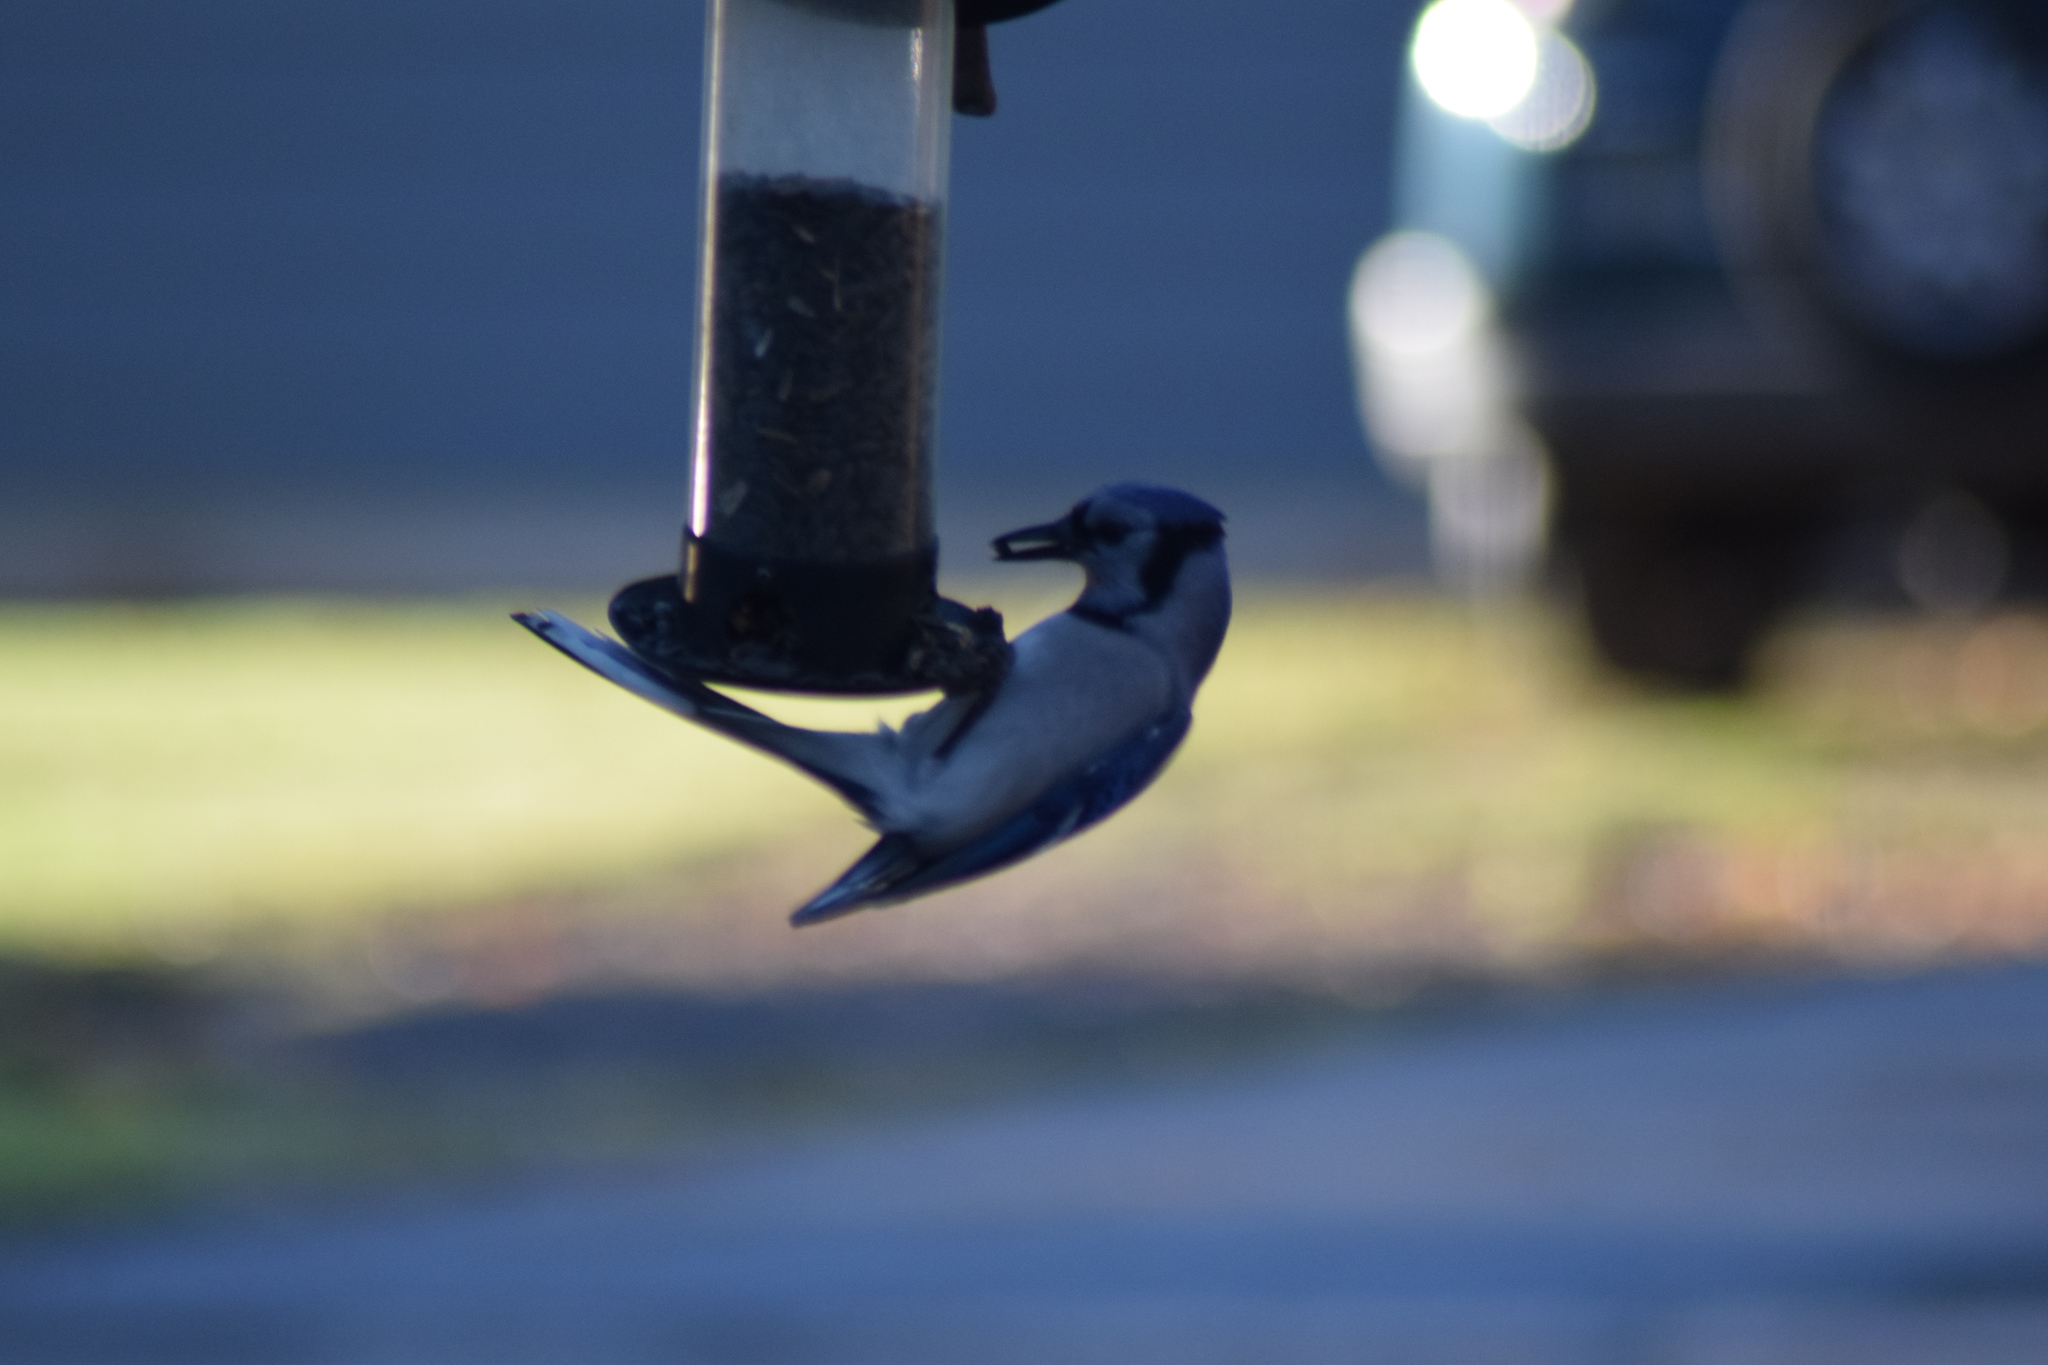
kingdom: Animalia
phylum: Chordata
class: Aves
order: Passeriformes
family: Corvidae
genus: Cyanocitta
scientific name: Cyanocitta cristata
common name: Blue jay
